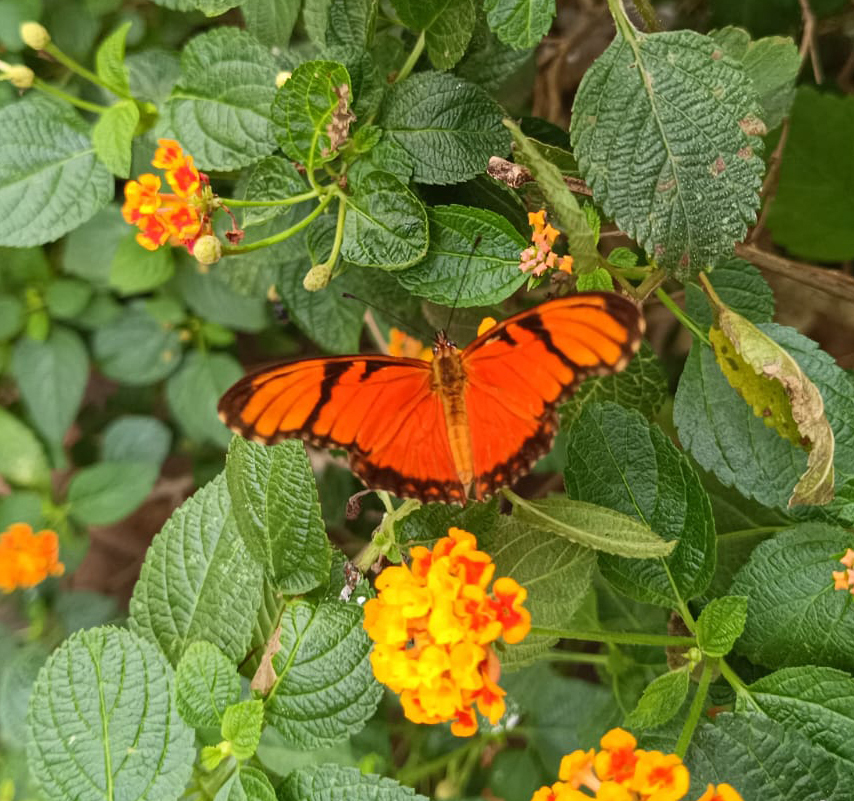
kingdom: Animalia
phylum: Arthropoda
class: Insecta
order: Lepidoptera
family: Nymphalidae
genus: Dione
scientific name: Dione juno
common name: Juno silverspot
